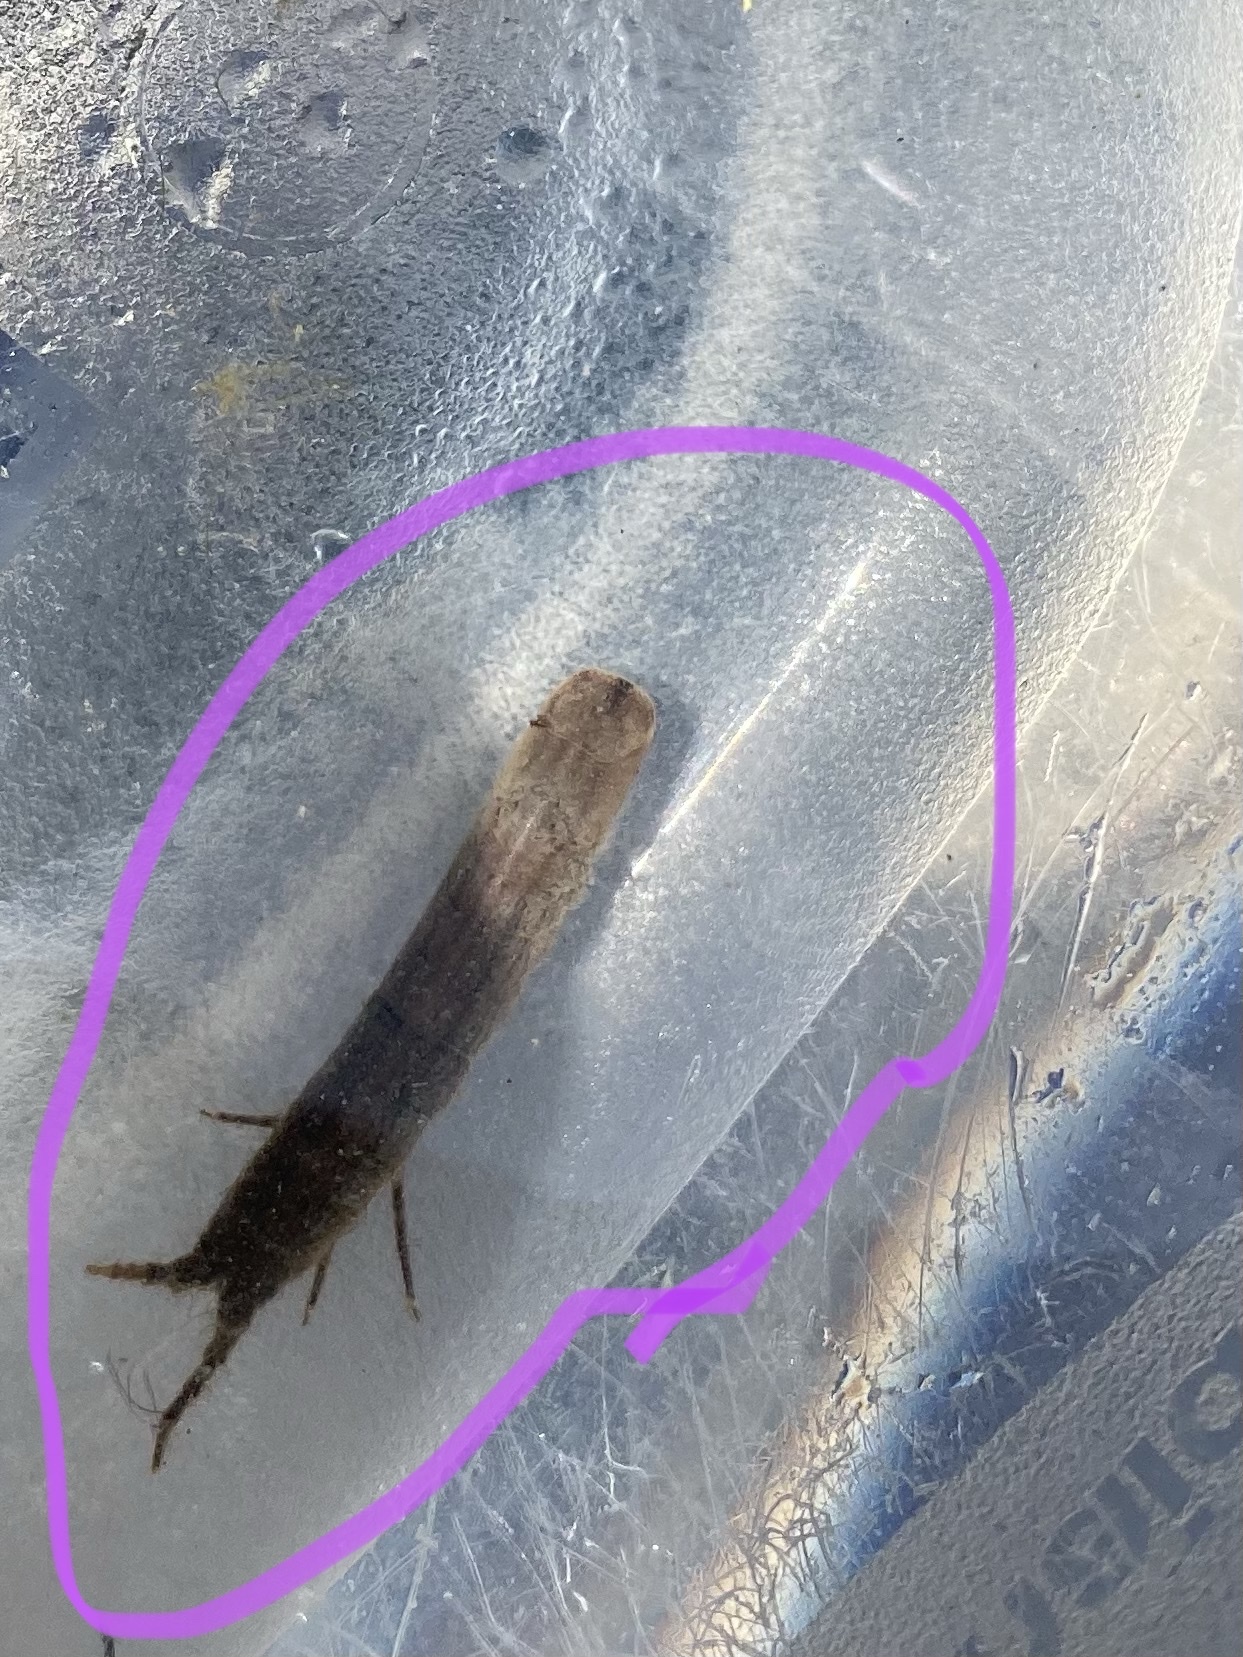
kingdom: Animalia
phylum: Arthropoda
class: Malacostraca
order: Isopoda
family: Holognathidae
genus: Cleantioides
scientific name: Cleantioides planicauda
